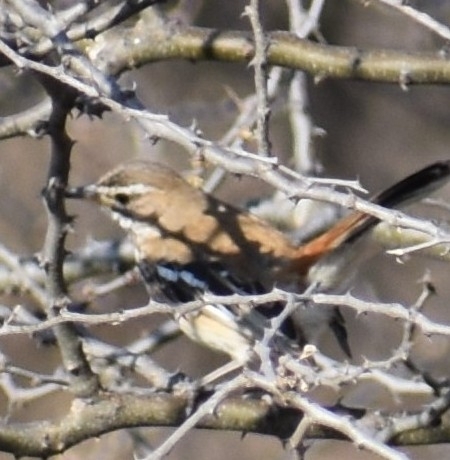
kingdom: Animalia
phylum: Chordata
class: Aves
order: Passeriformes
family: Muscicapidae
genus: Erythropygia
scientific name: Erythropygia leucophrys
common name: White-browed scrub robin
